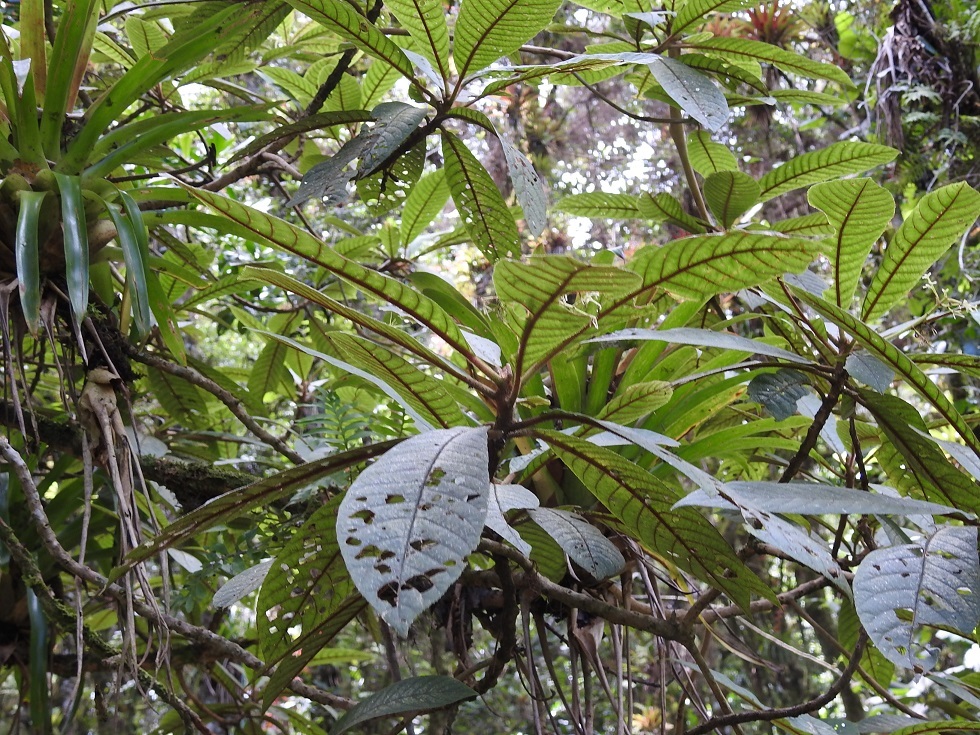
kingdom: Plantae
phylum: Tracheophyta
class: Magnoliopsida
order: Ericales
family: Actinidiaceae
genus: Saurauia
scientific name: Saurauia oreophila
